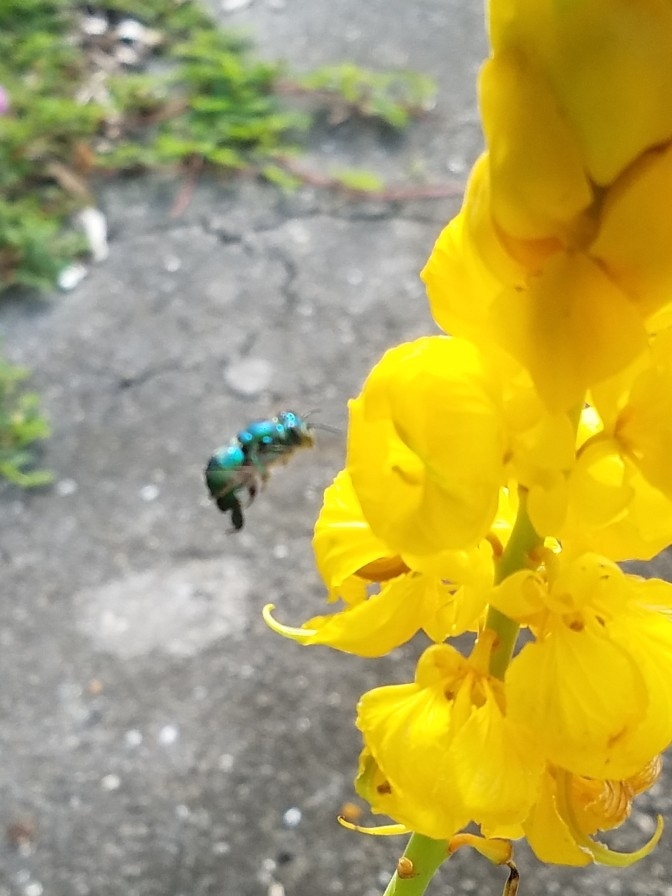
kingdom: Animalia
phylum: Arthropoda
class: Insecta
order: Hymenoptera
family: Apidae
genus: Euglossa
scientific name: Euglossa dilemma
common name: Green orchid bee
